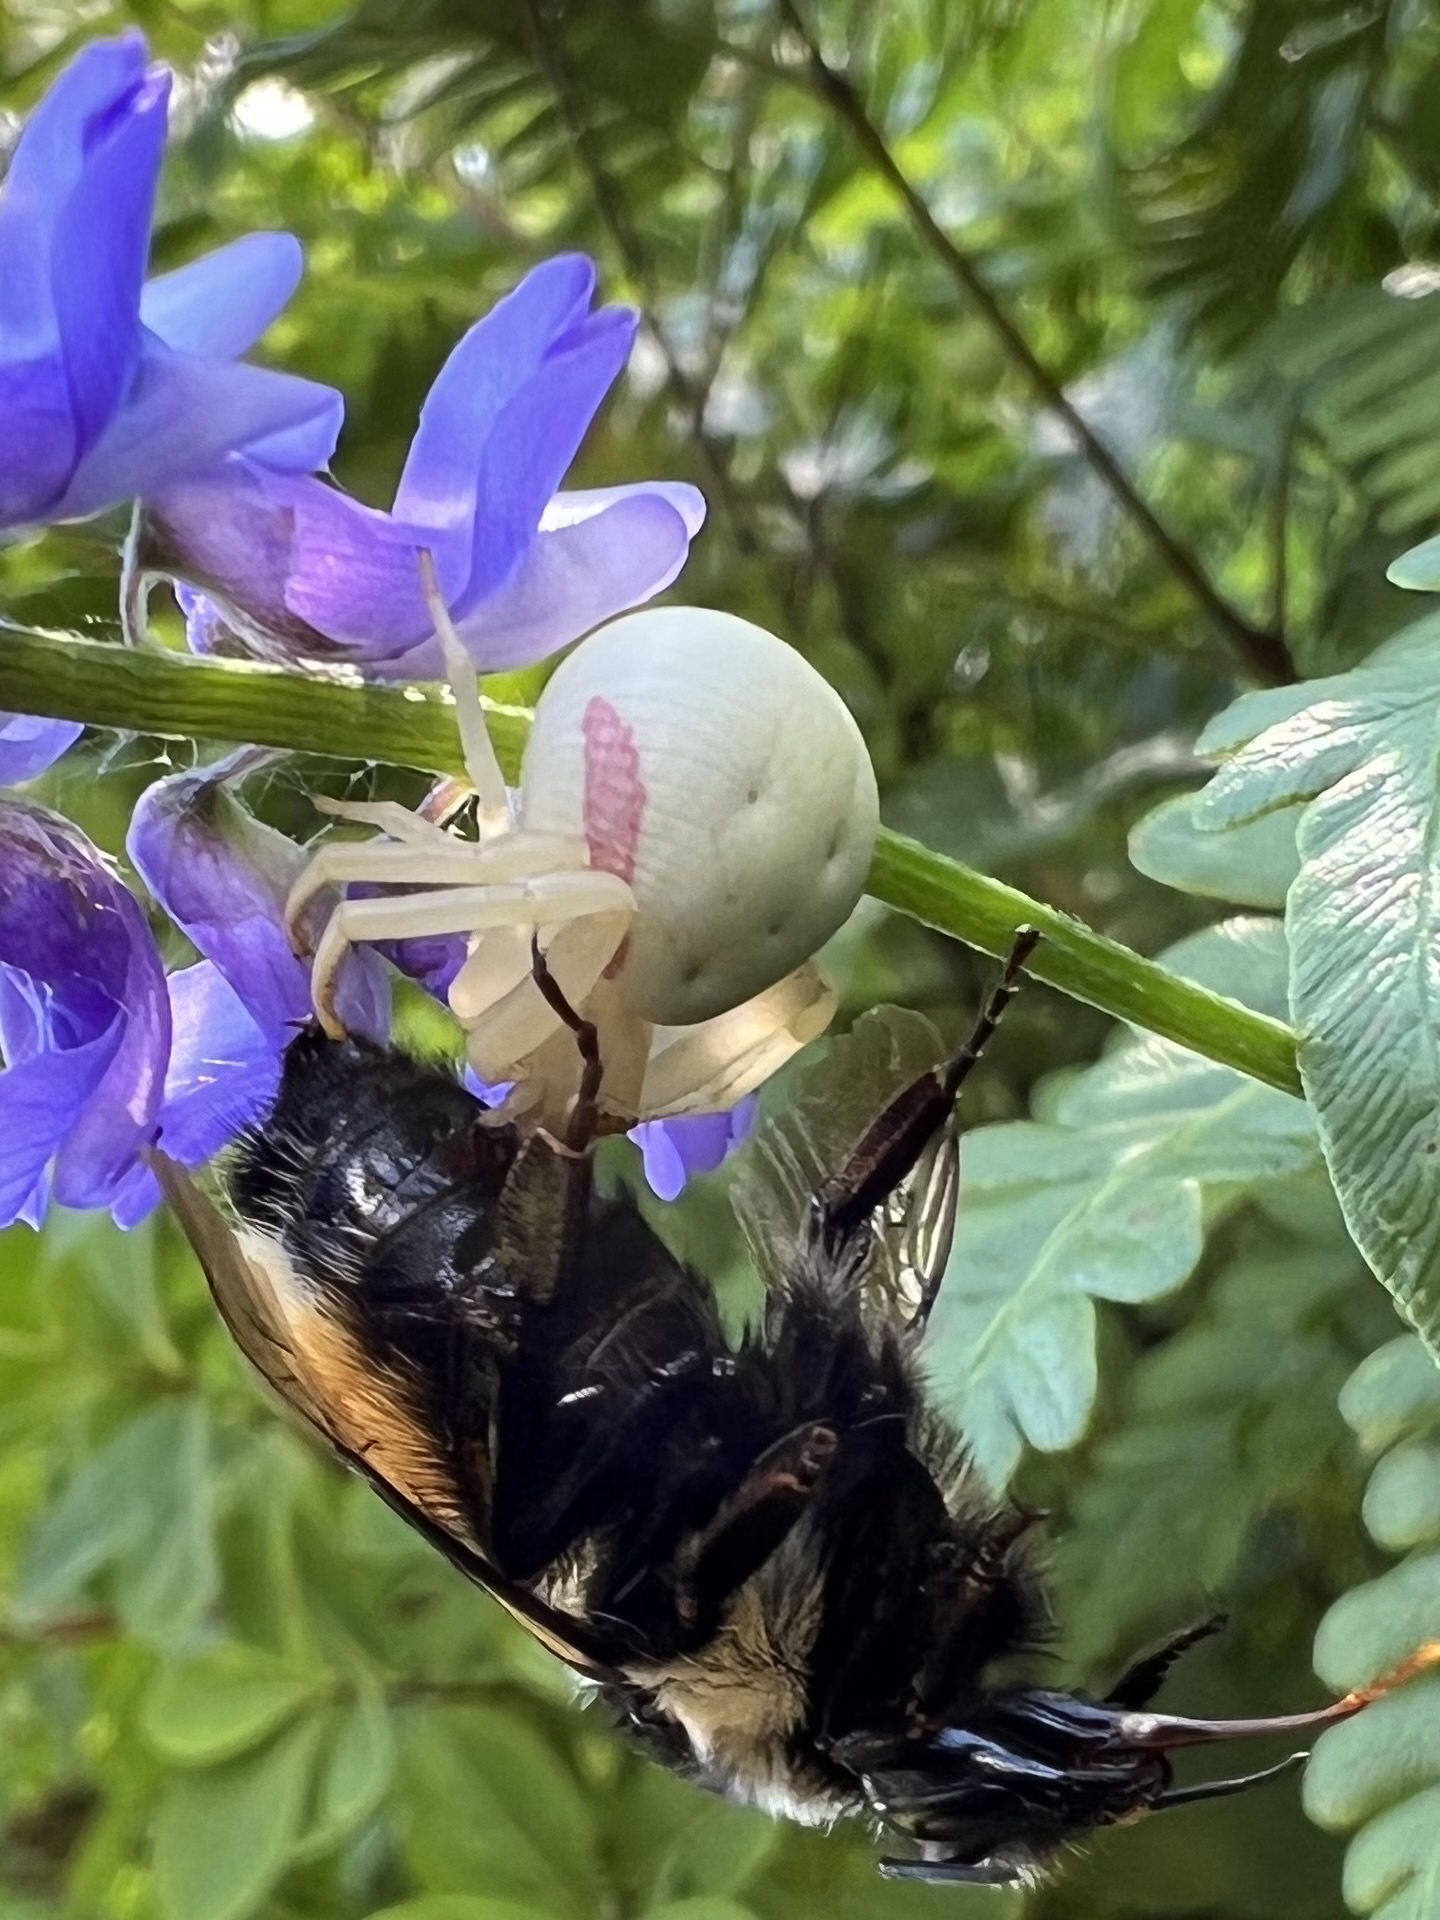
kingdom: Animalia
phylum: Arthropoda
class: Arachnida
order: Araneae
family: Thomisidae
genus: Misumena
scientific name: Misumena vatia
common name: Goldenrod crab spider
